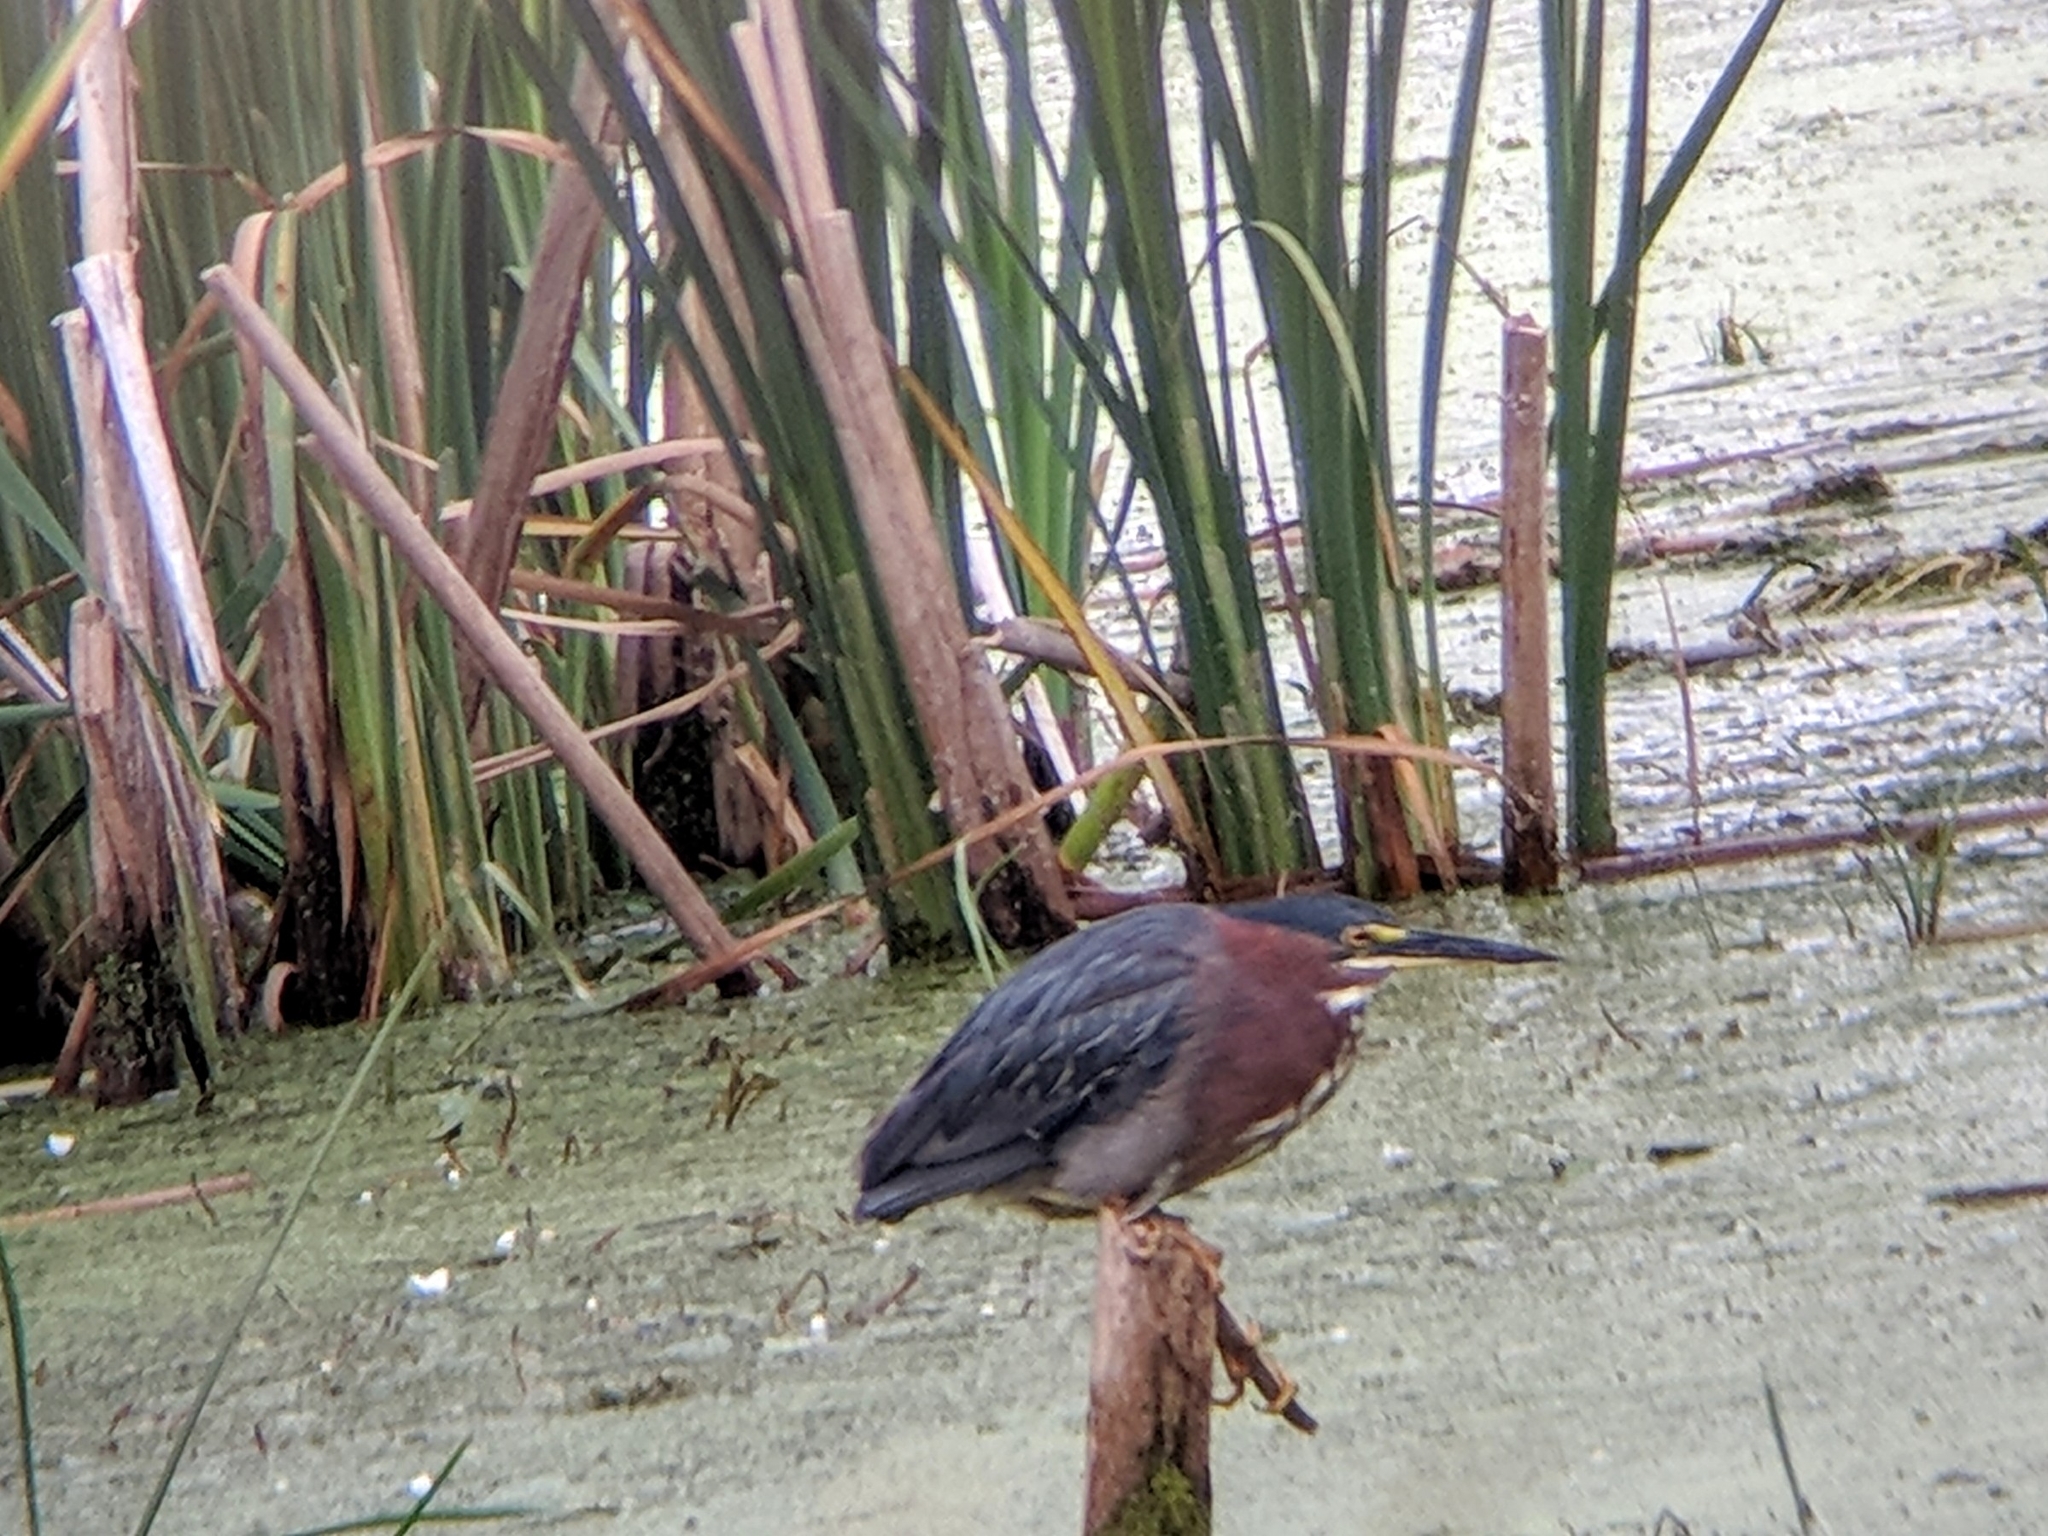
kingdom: Animalia
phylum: Chordata
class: Aves
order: Pelecaniformes
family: Ardeidae
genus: Butorides
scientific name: Butorides virescens
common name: Green heron
